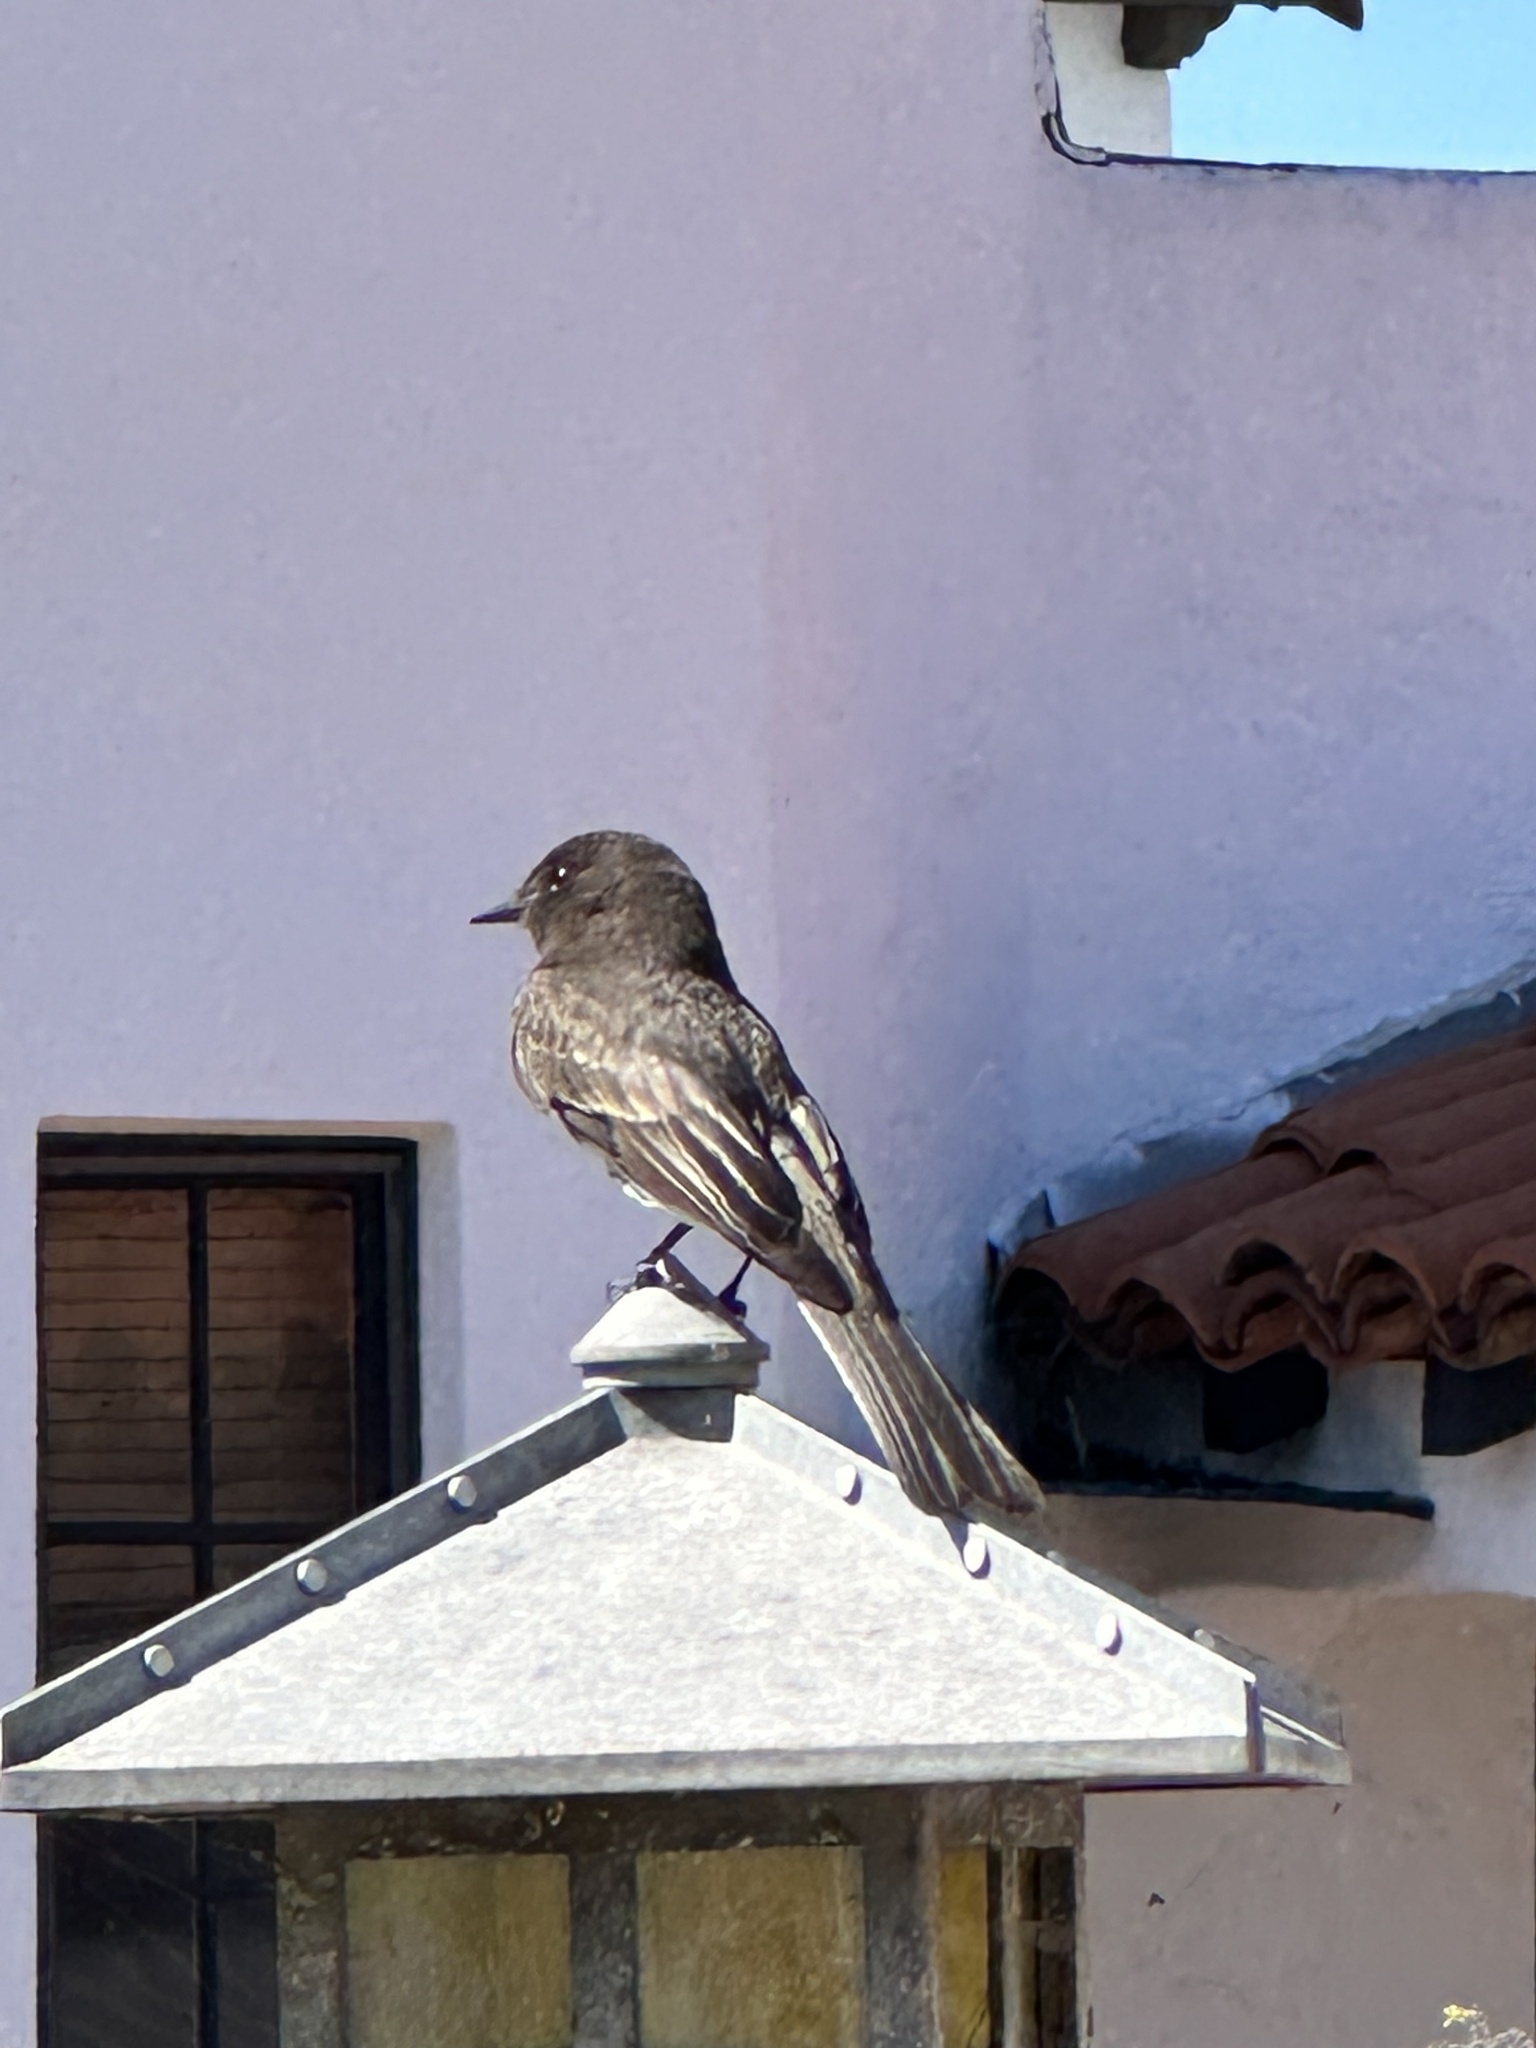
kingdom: Animalia
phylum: Chordata
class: Aves
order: Passeriformes
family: Tyrannidae
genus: Sayornis
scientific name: Sayornis nigricans
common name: Black phoebe
